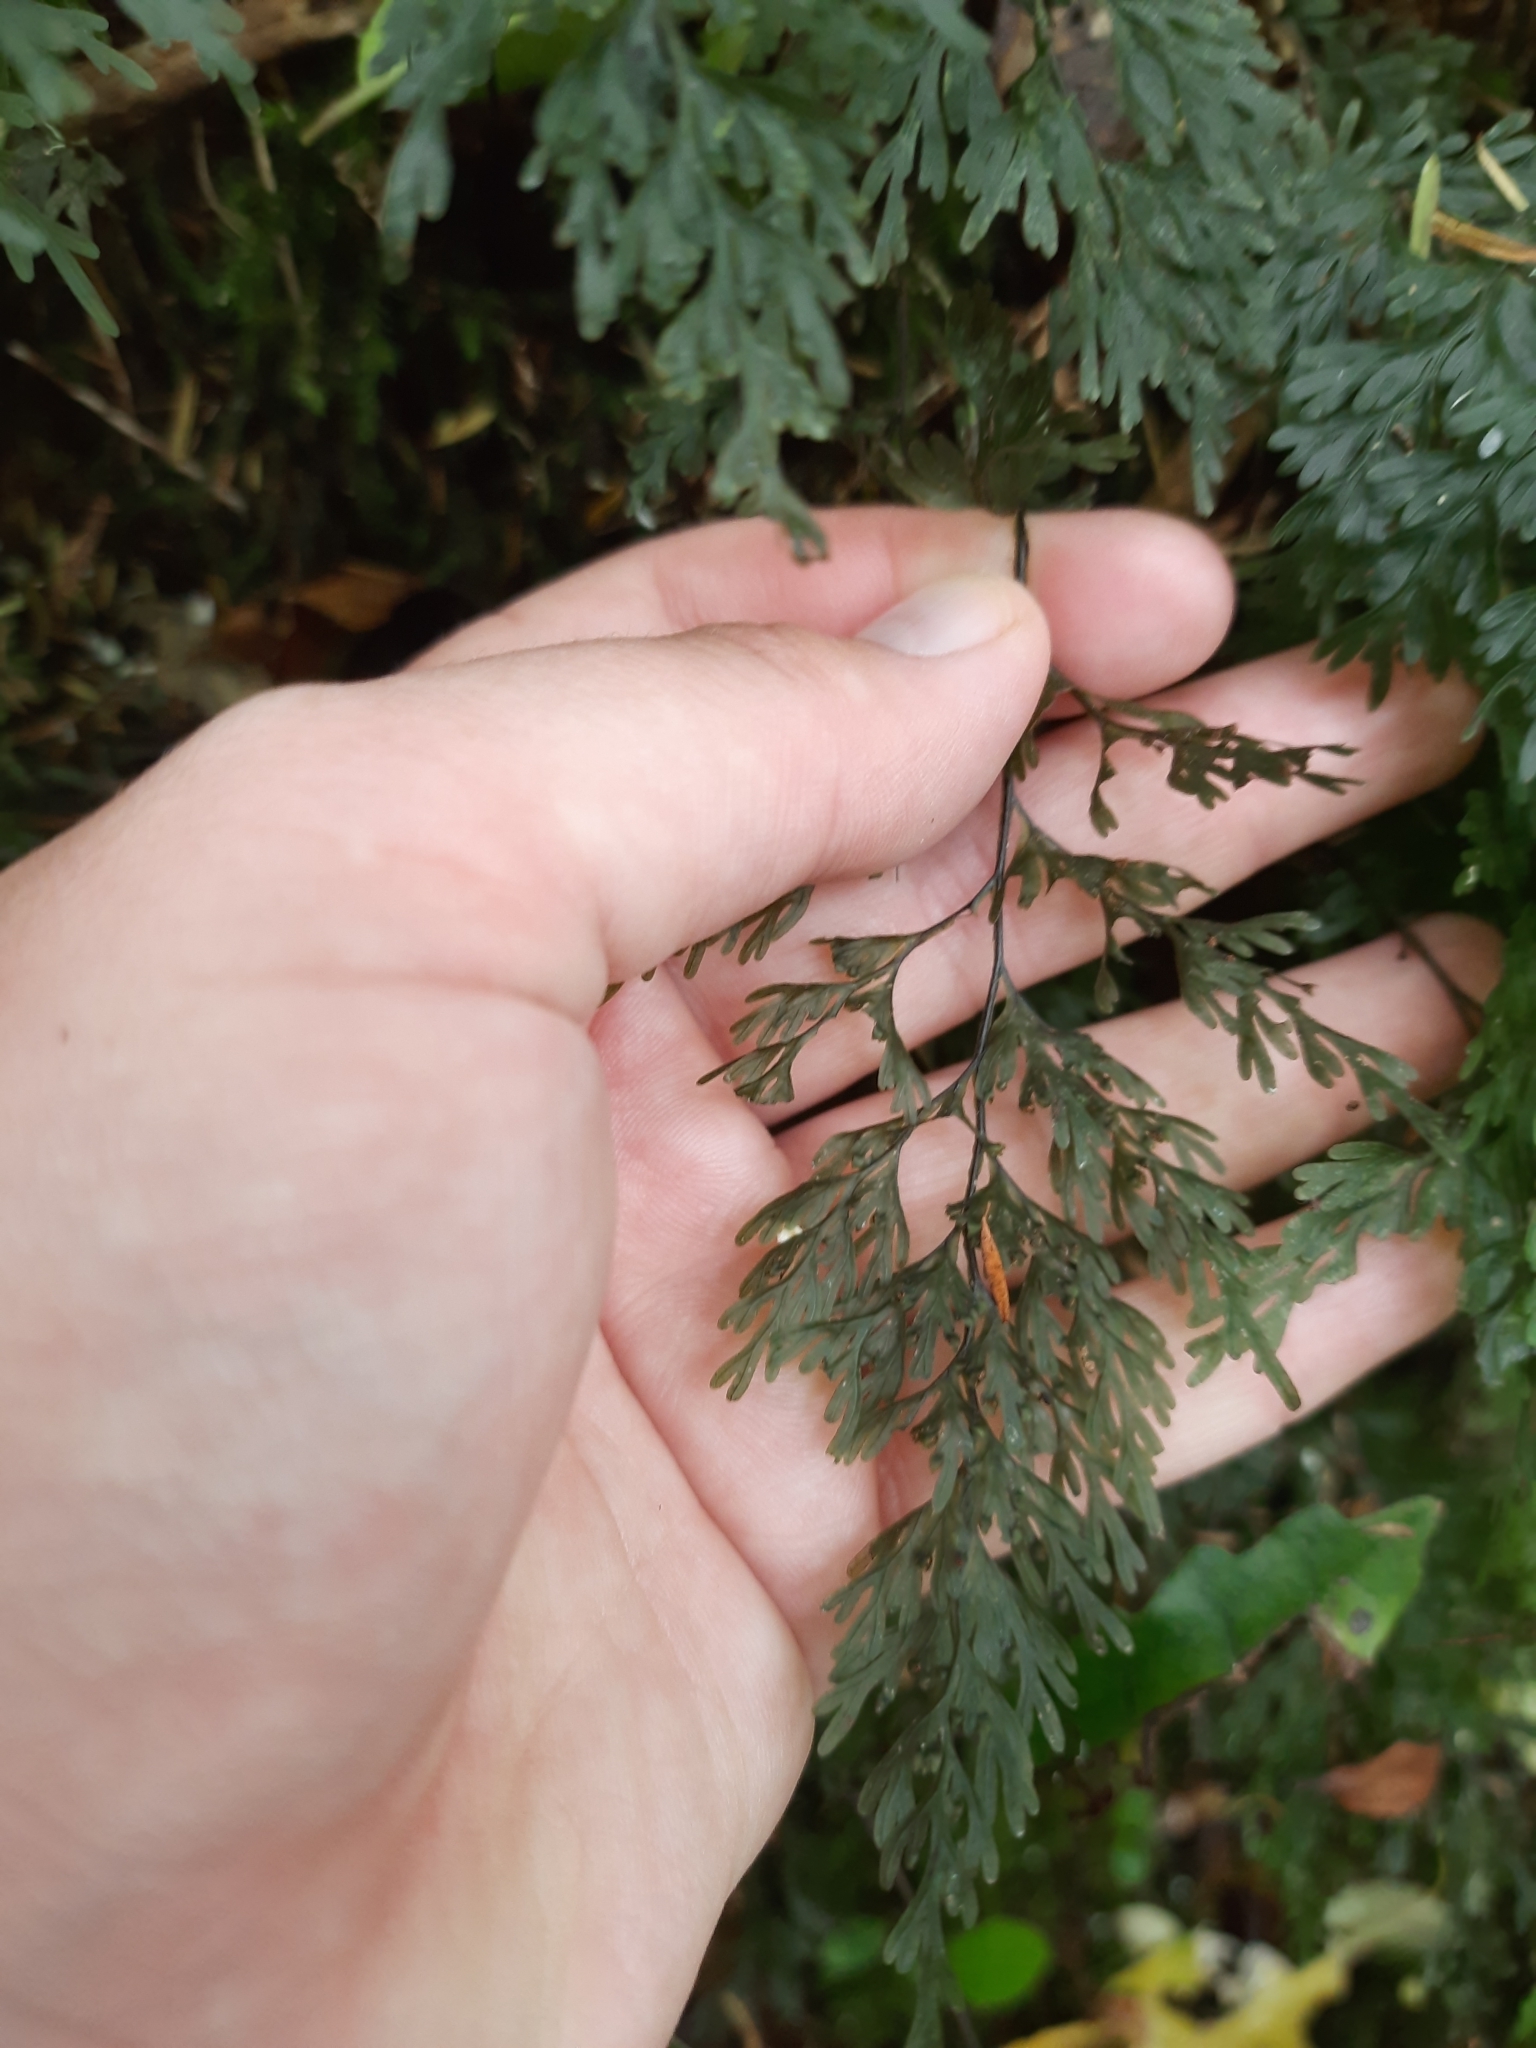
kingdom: Plantae
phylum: Tracheophyta
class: Polypodiopsida
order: Hymenophyllales
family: Hymenophyllaceae
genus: Hymenophyllum
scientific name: Hymenophyllum demissum
